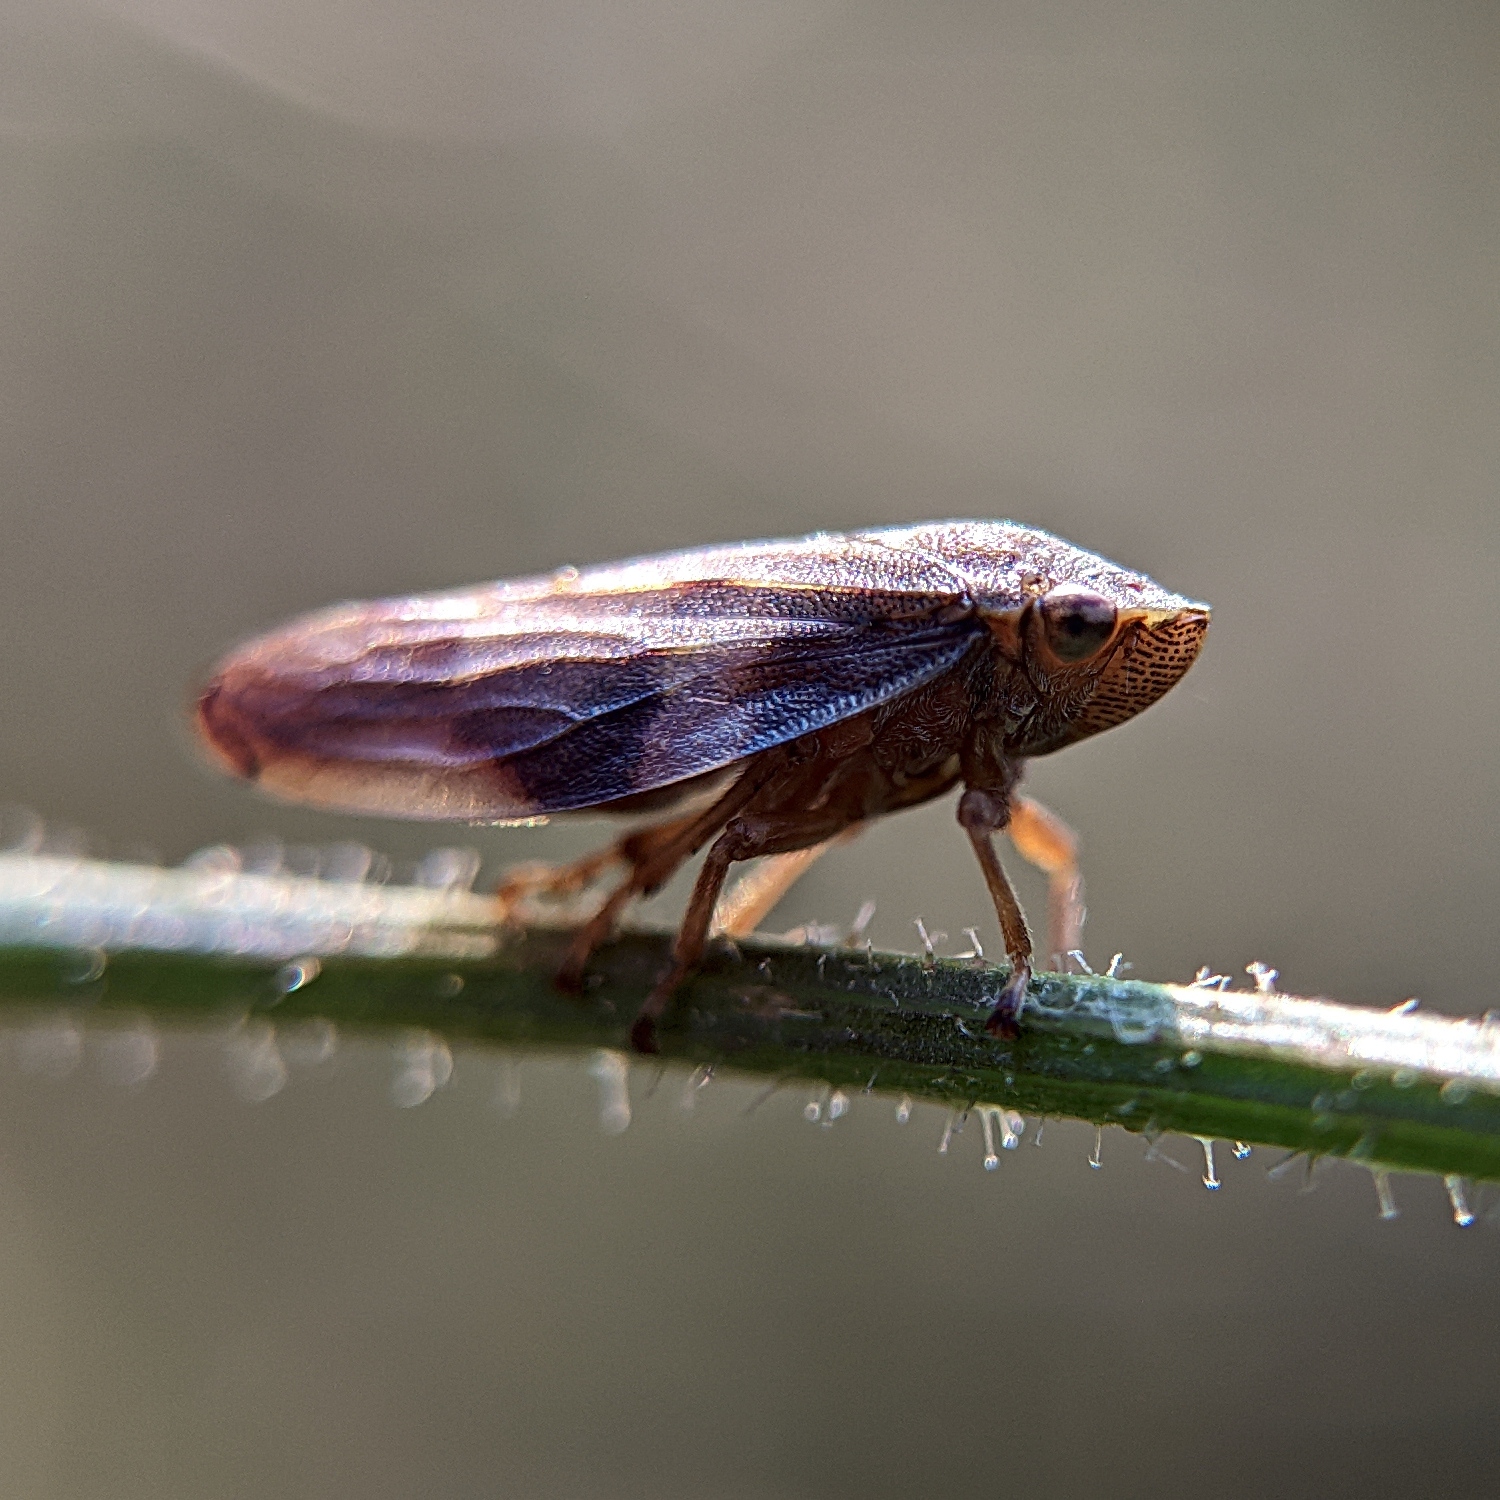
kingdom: Animalia
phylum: Arthropoda
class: Insecta
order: Hemiptera
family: Aphrophoridae
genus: Aphrophora
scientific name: Aphrophora alni
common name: European alder spittlebug
